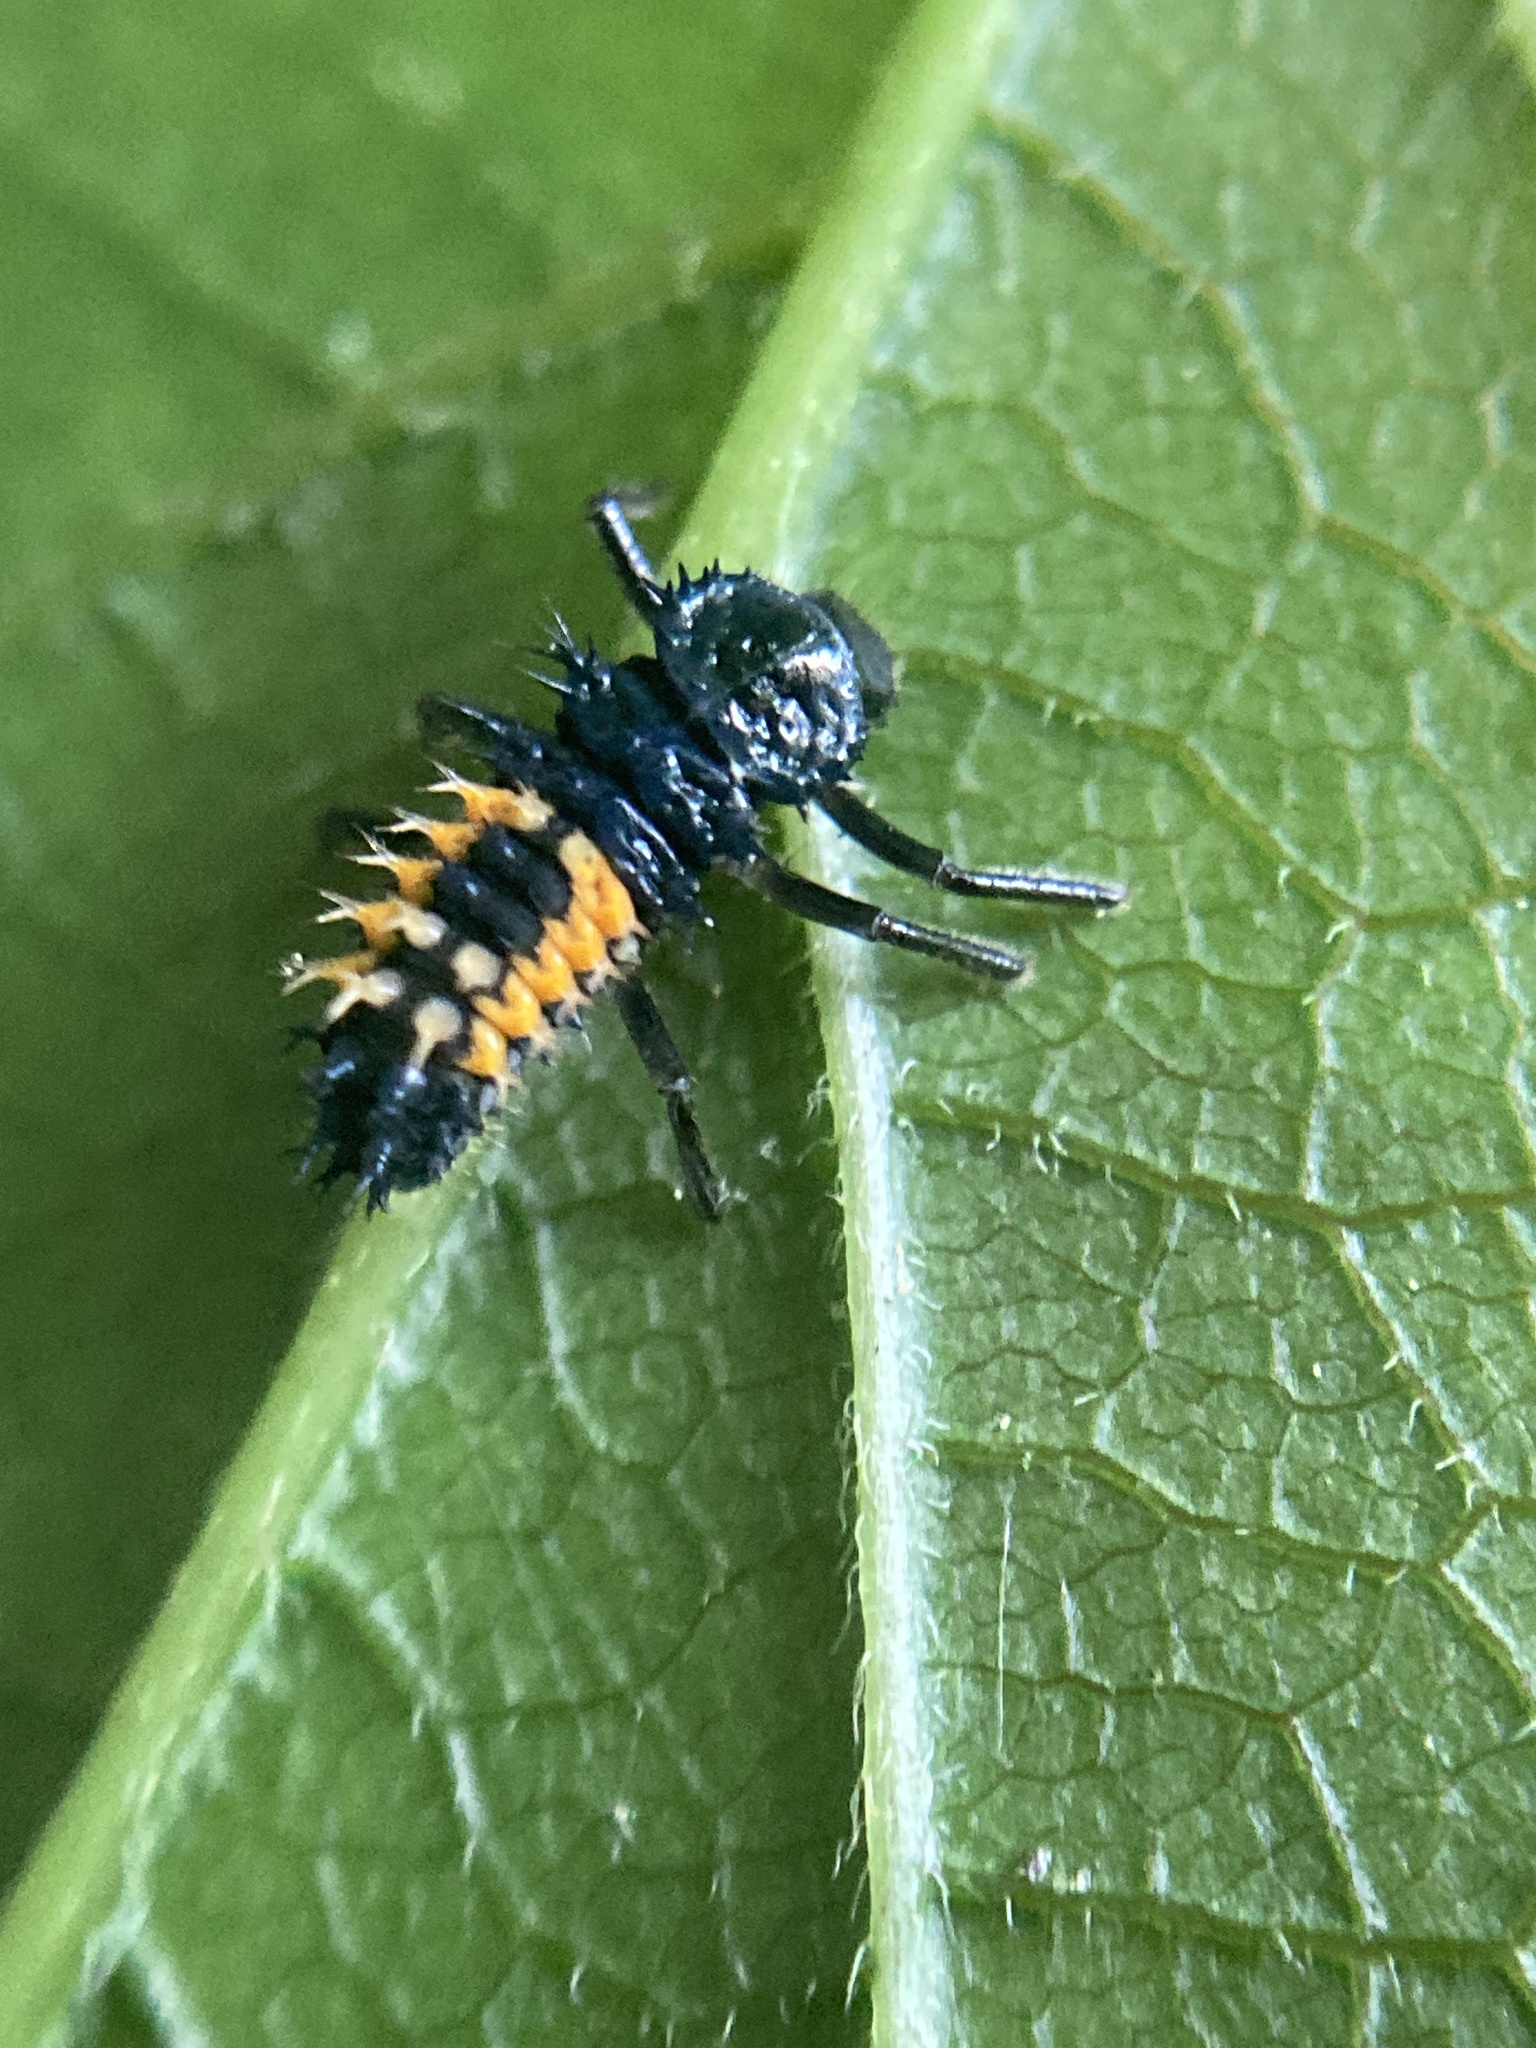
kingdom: Animalia
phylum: Arthropoda
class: Insecta
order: Coleoptera
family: Coccinellidae
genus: Harmonia
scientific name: Harmonia axyridis
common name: Harlequin ladybird
